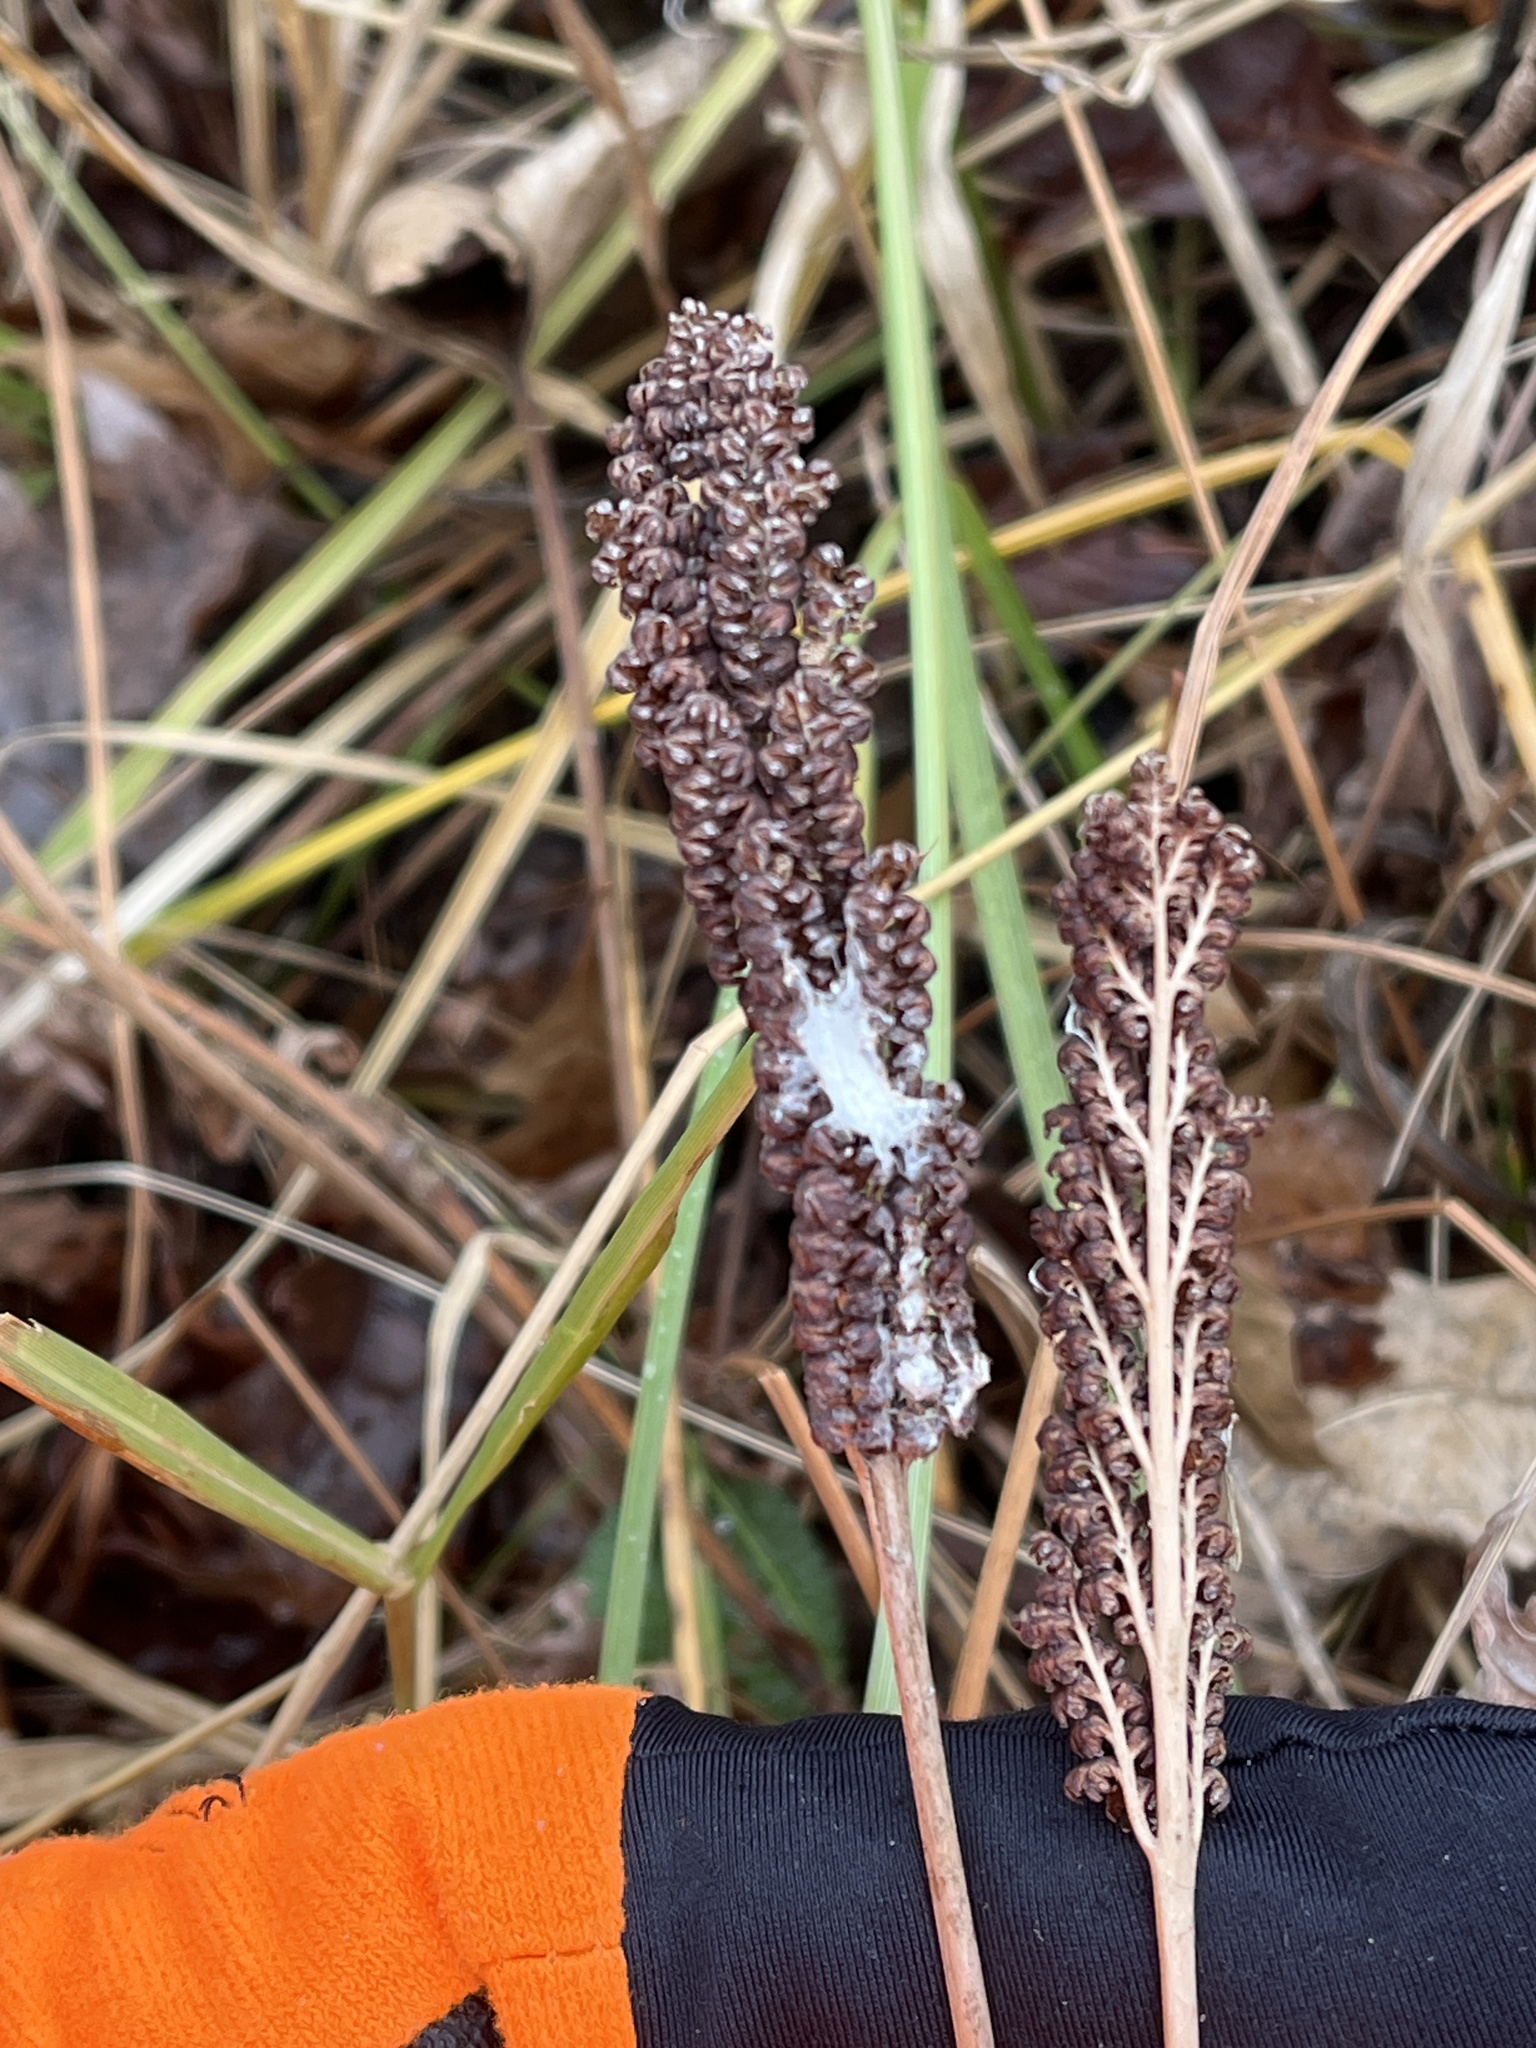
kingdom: Plantae
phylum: Tracheophyta
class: Polypodiopsida
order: Polypodiales
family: Onocleaceae
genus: Onoclea
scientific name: Onoclea sensibilis
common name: Sensitive fern
